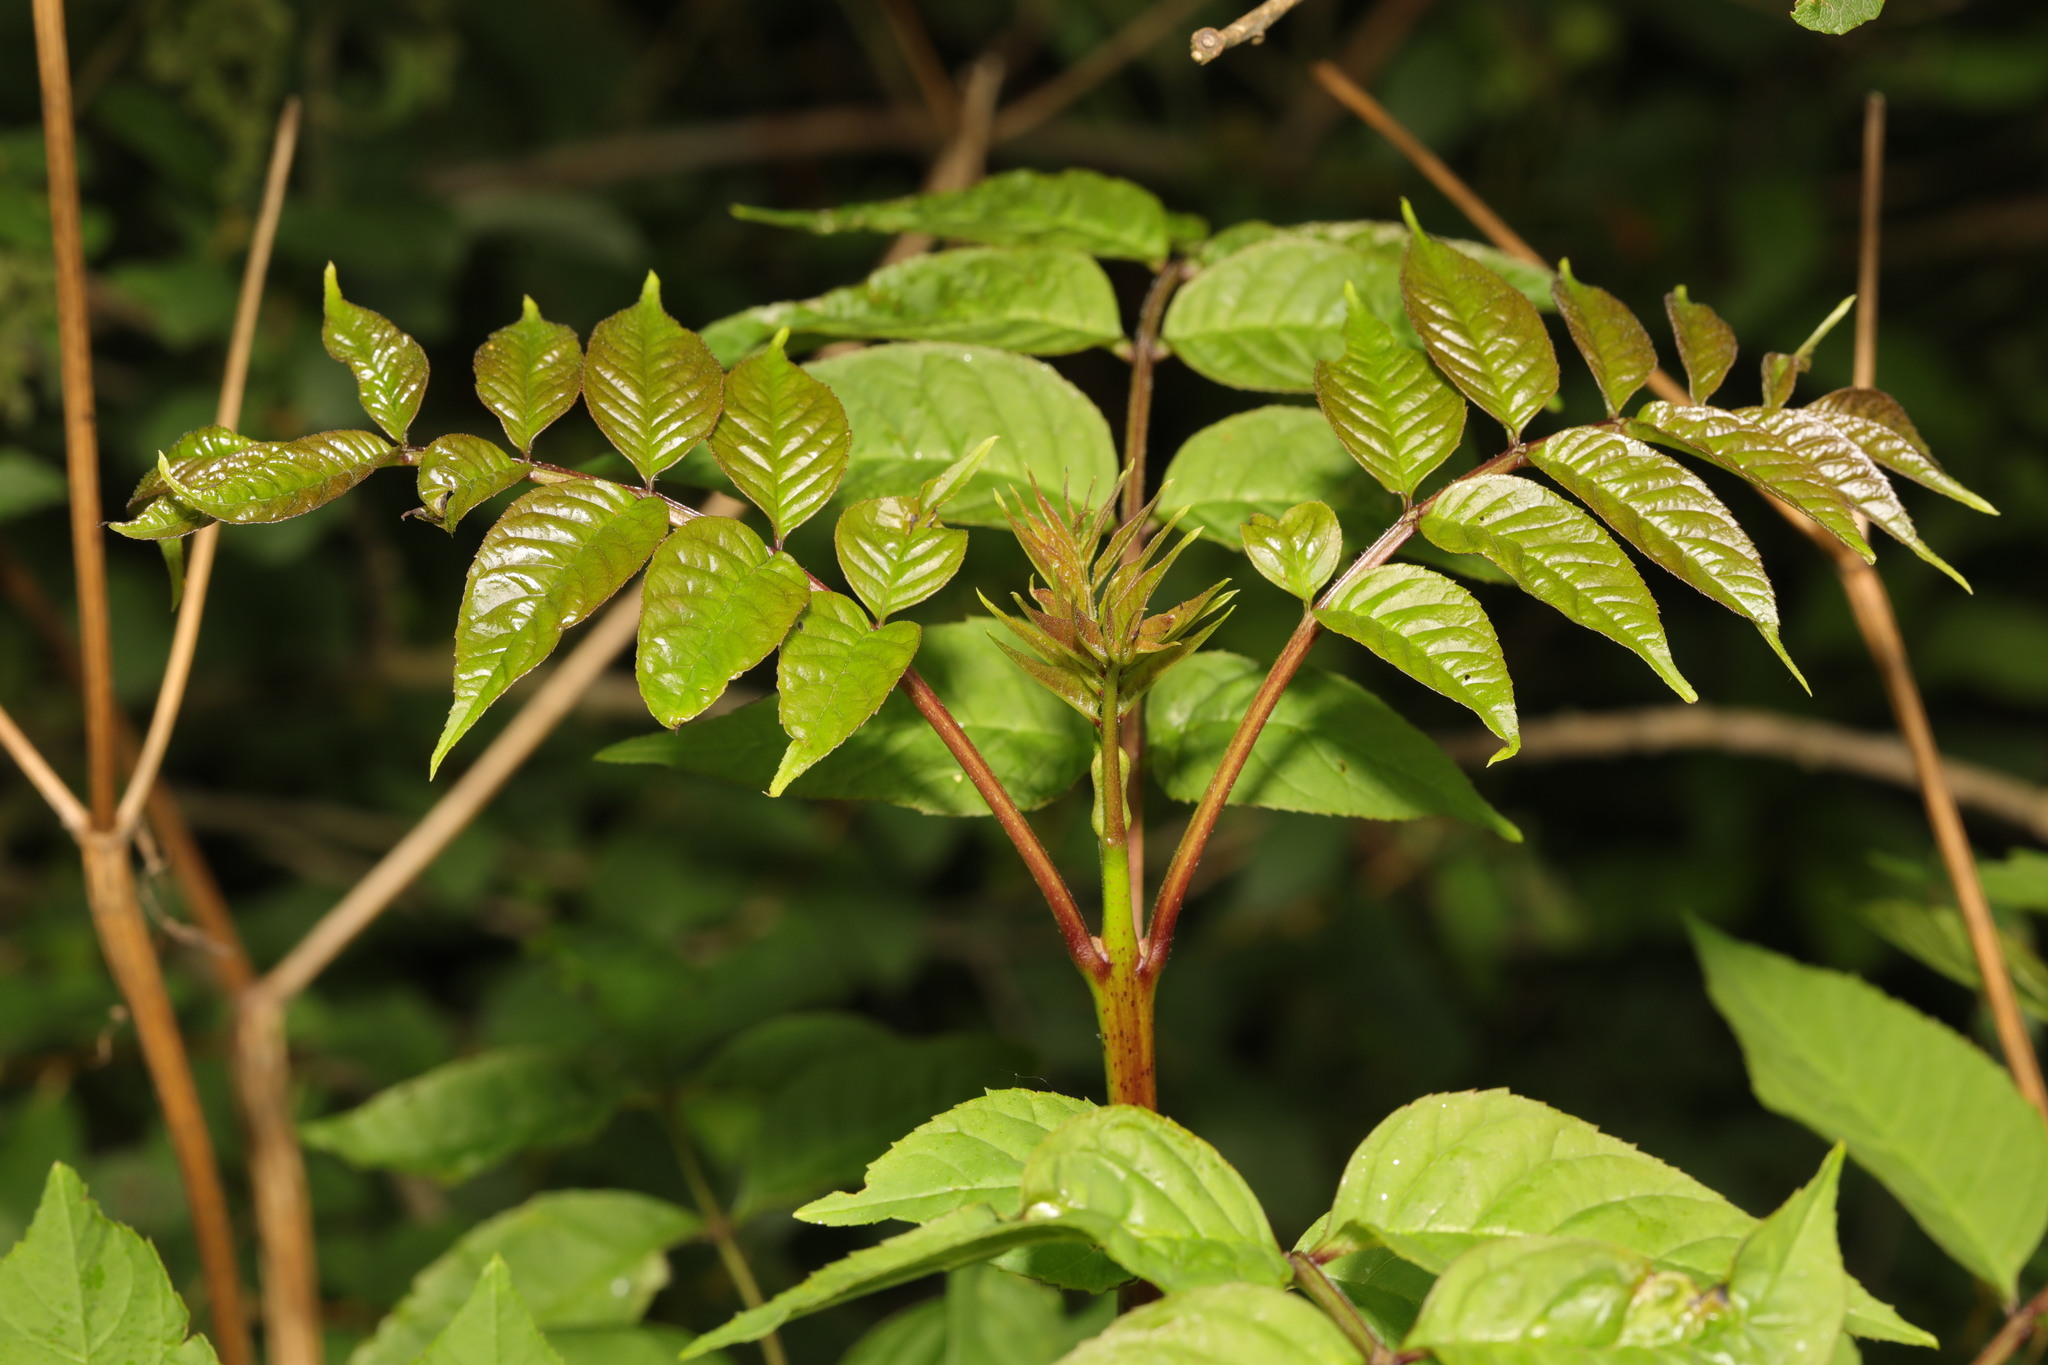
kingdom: Plantae
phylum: Tracheophyta
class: Magnoliopsida
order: Lamiales
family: Oleaceae
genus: Fraxinus
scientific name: Fraxinus excelsior
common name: European ash
